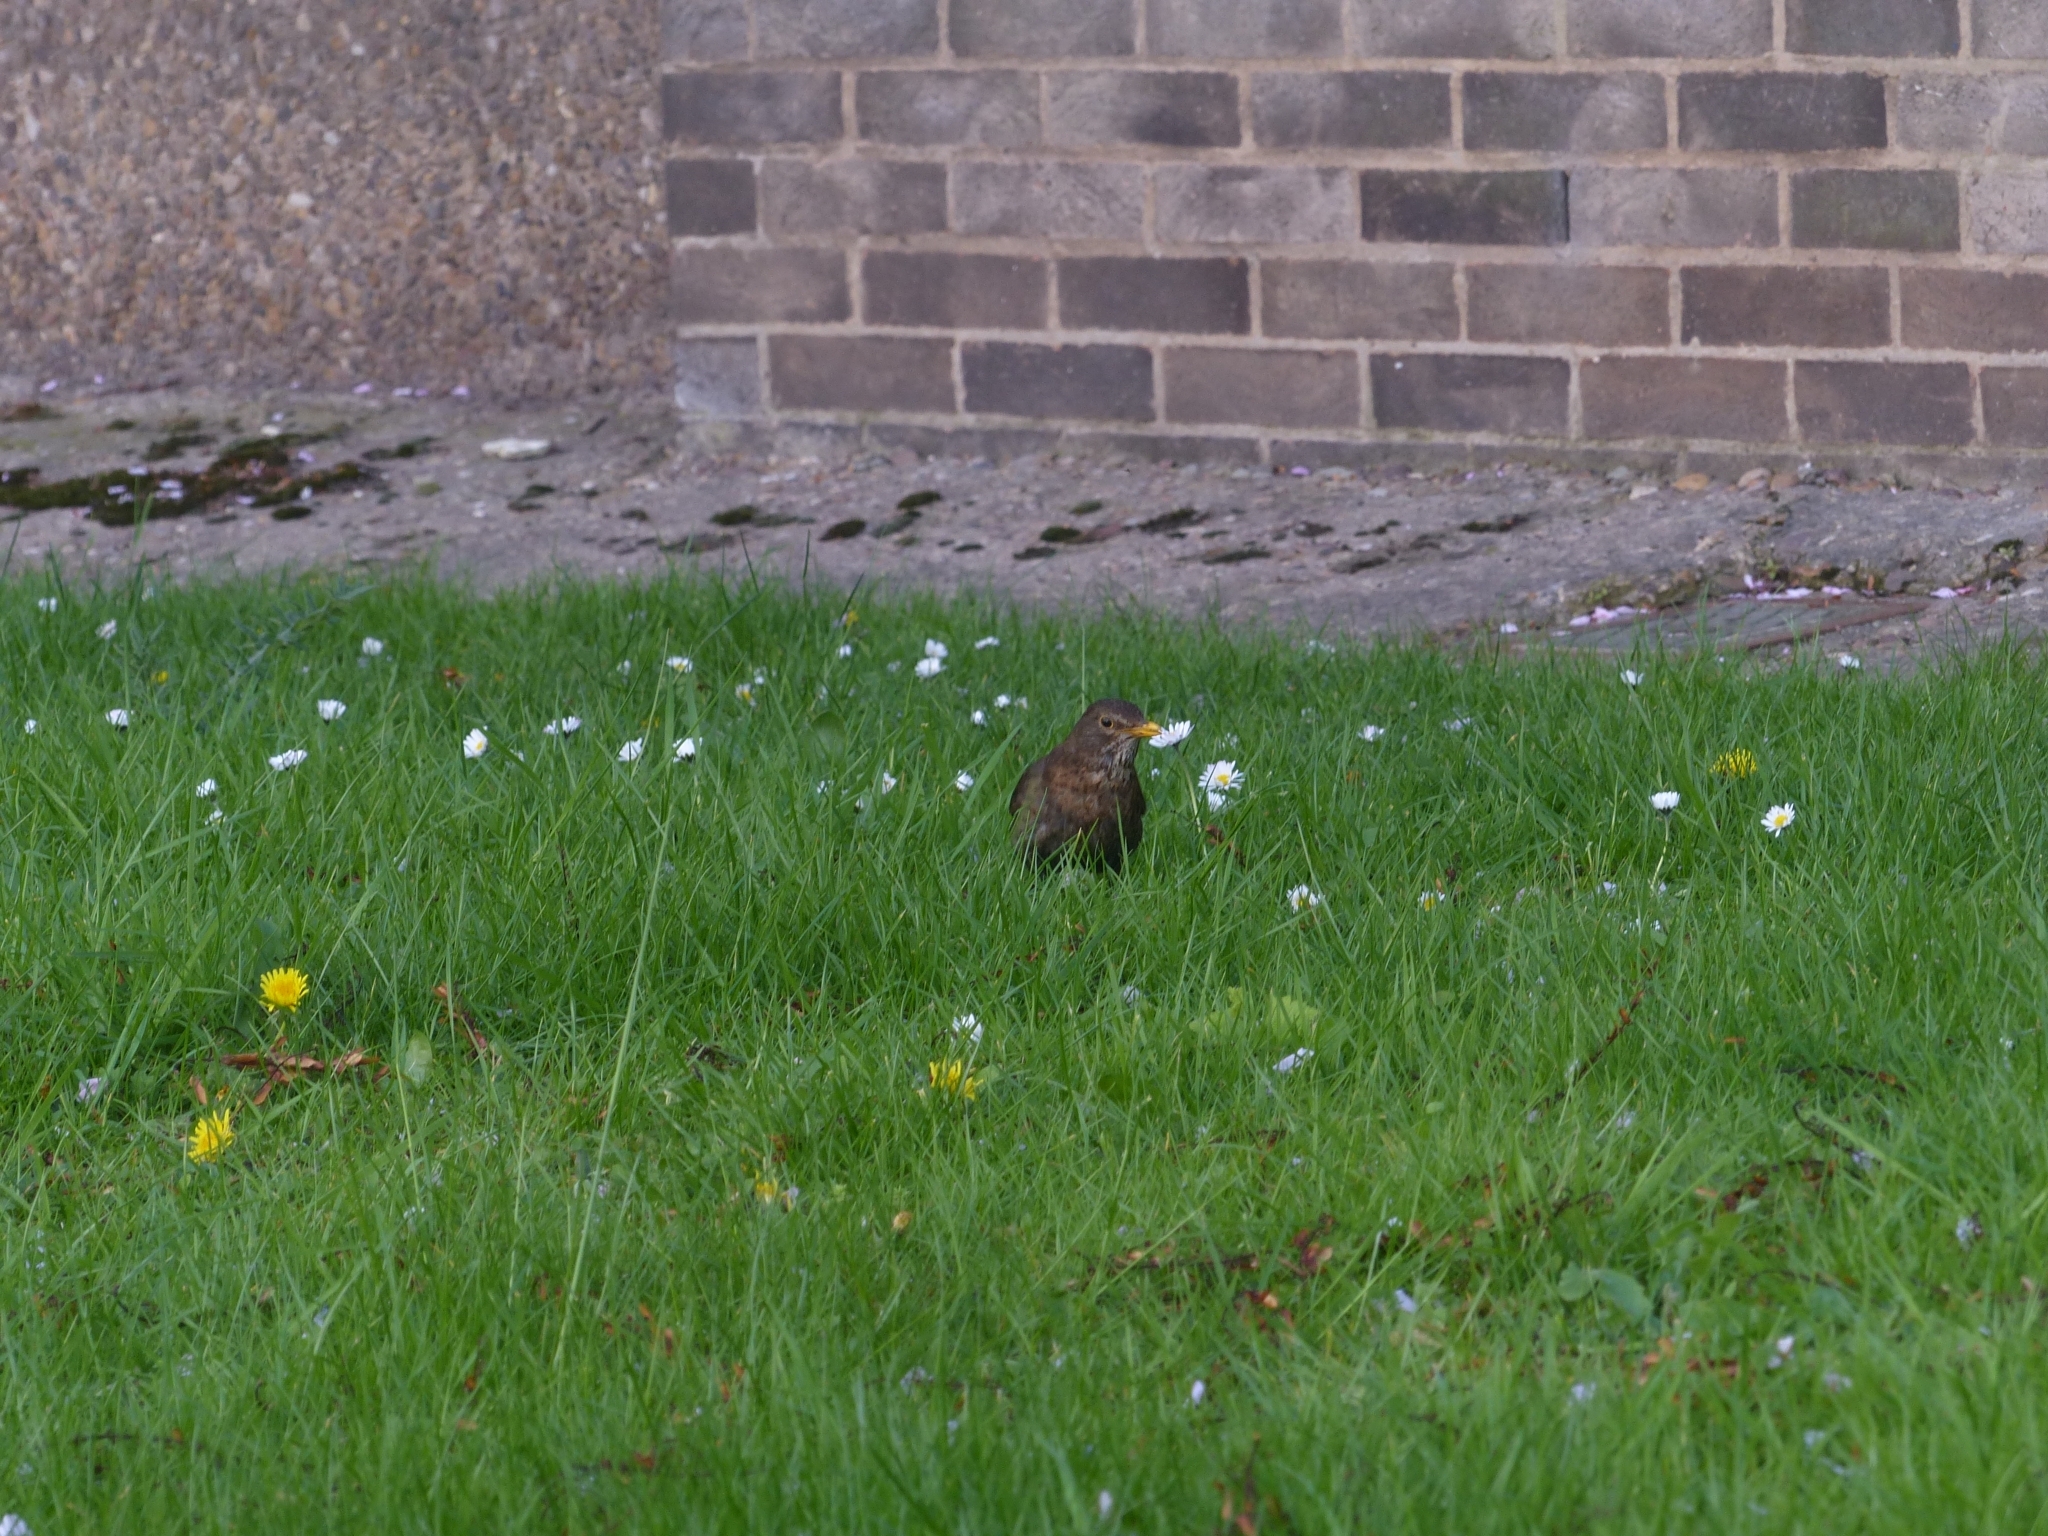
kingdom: Animalia
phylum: Chordata
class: Aves
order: Passeriformes
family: Turdidae
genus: Turdus
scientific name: Turdus merula
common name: Common blackbird
